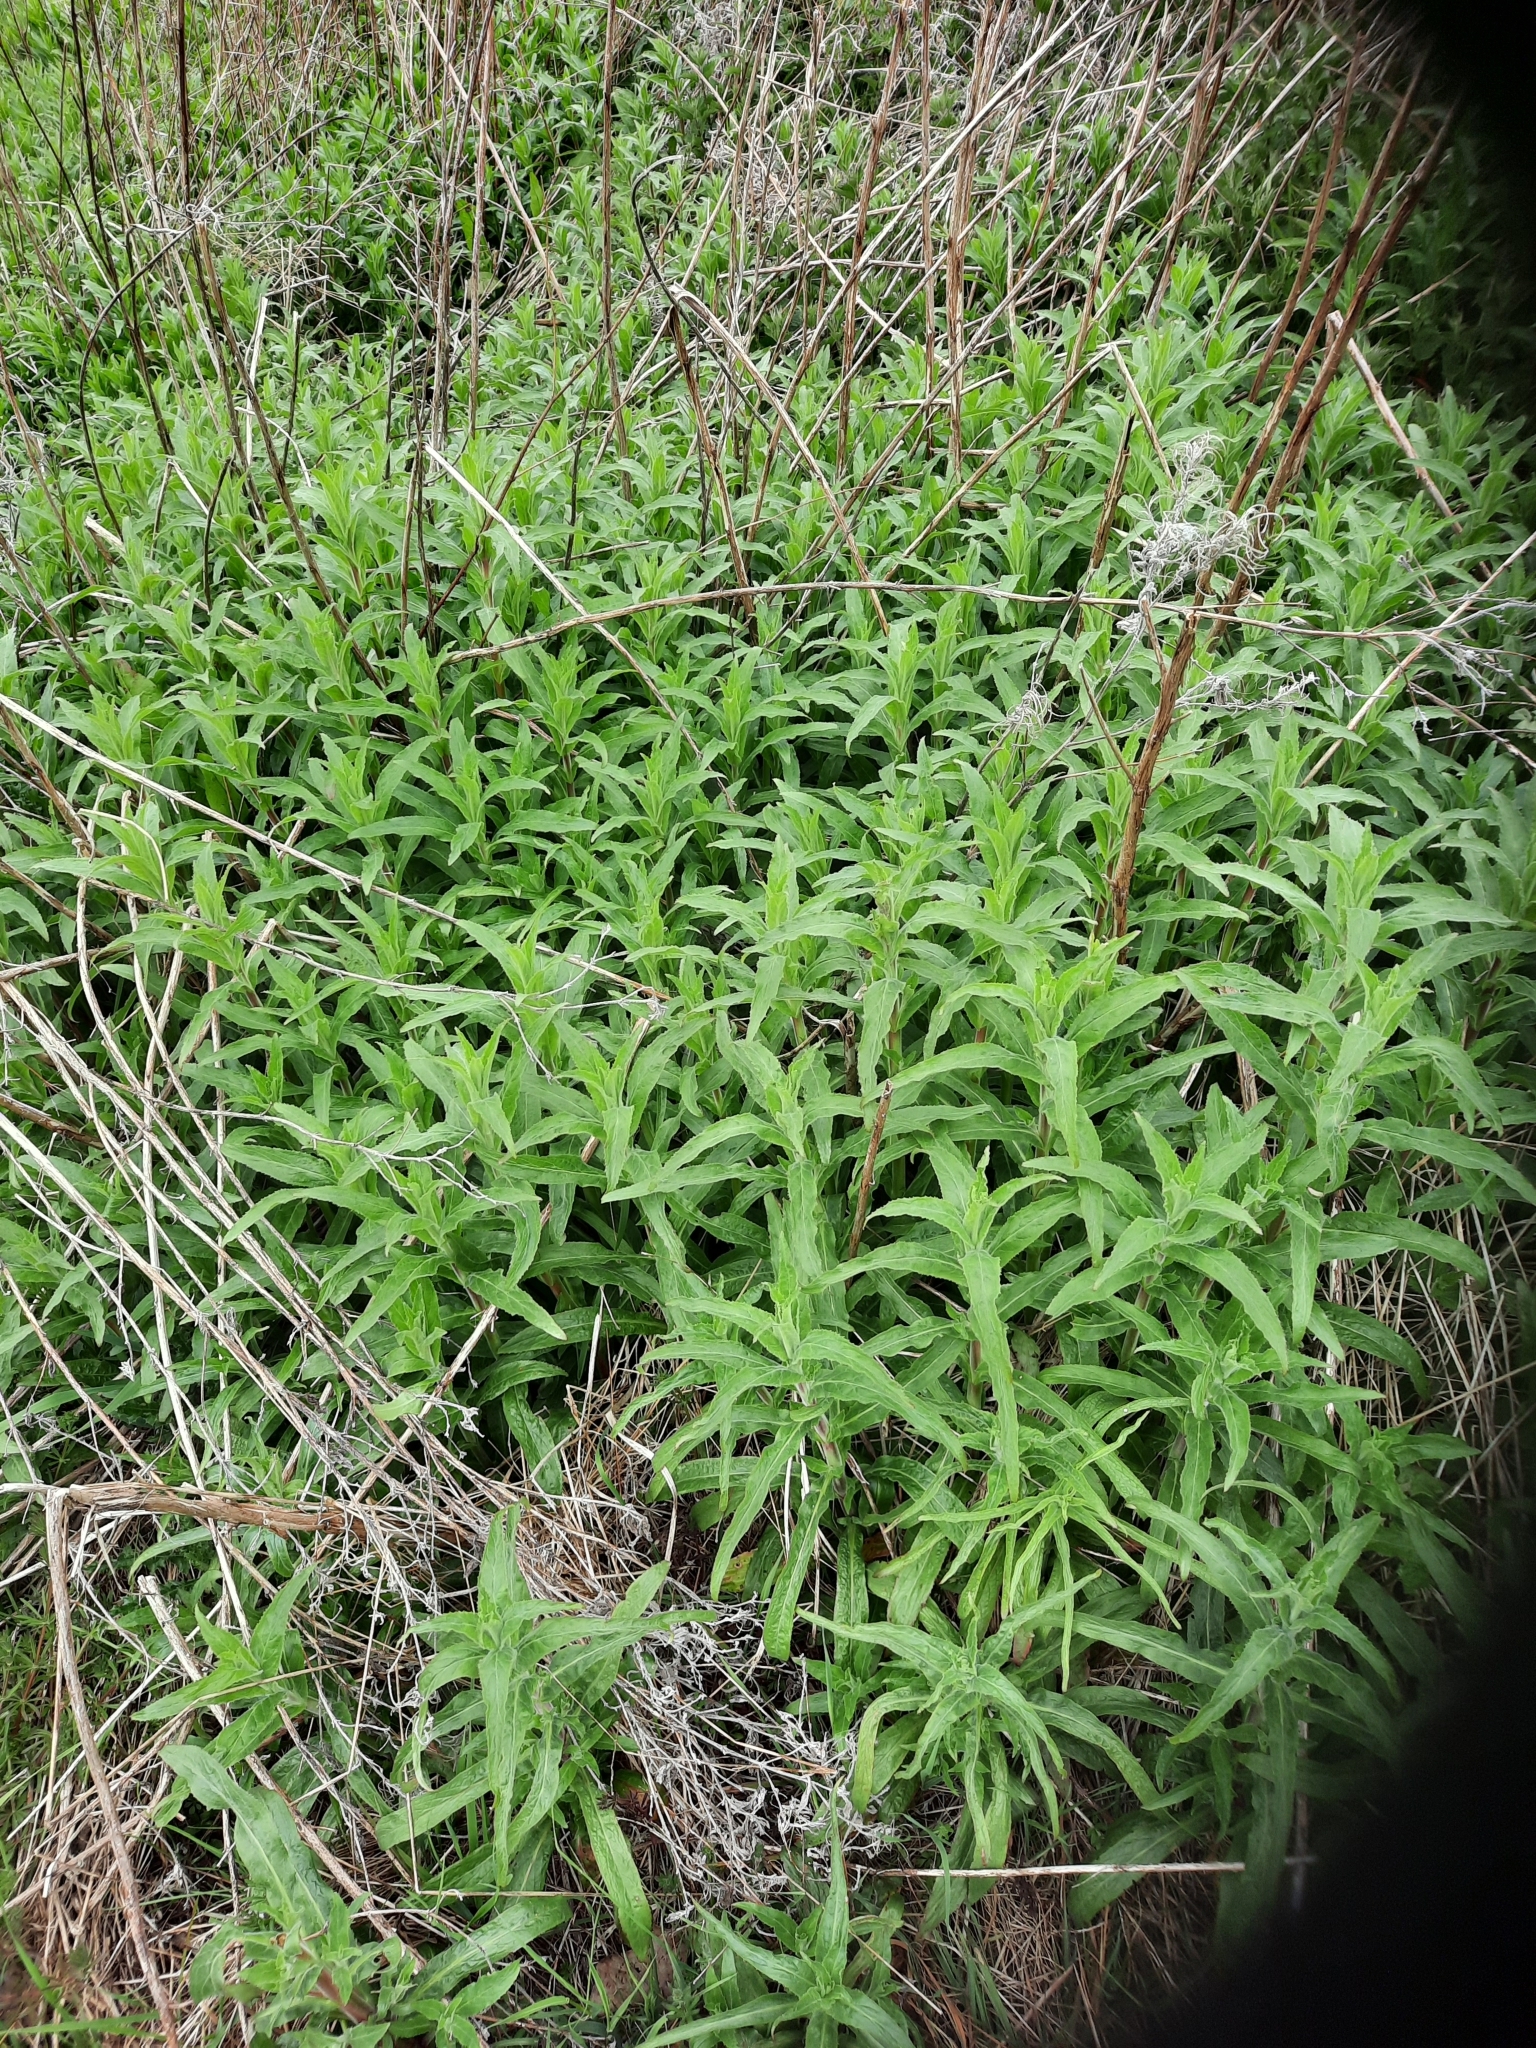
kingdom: Plantae
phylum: Tracheophyta
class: Magnoliopsida
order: Lamiales
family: Lamiaceae
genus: Mentha
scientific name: Mentha spicata
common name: Spearmint
